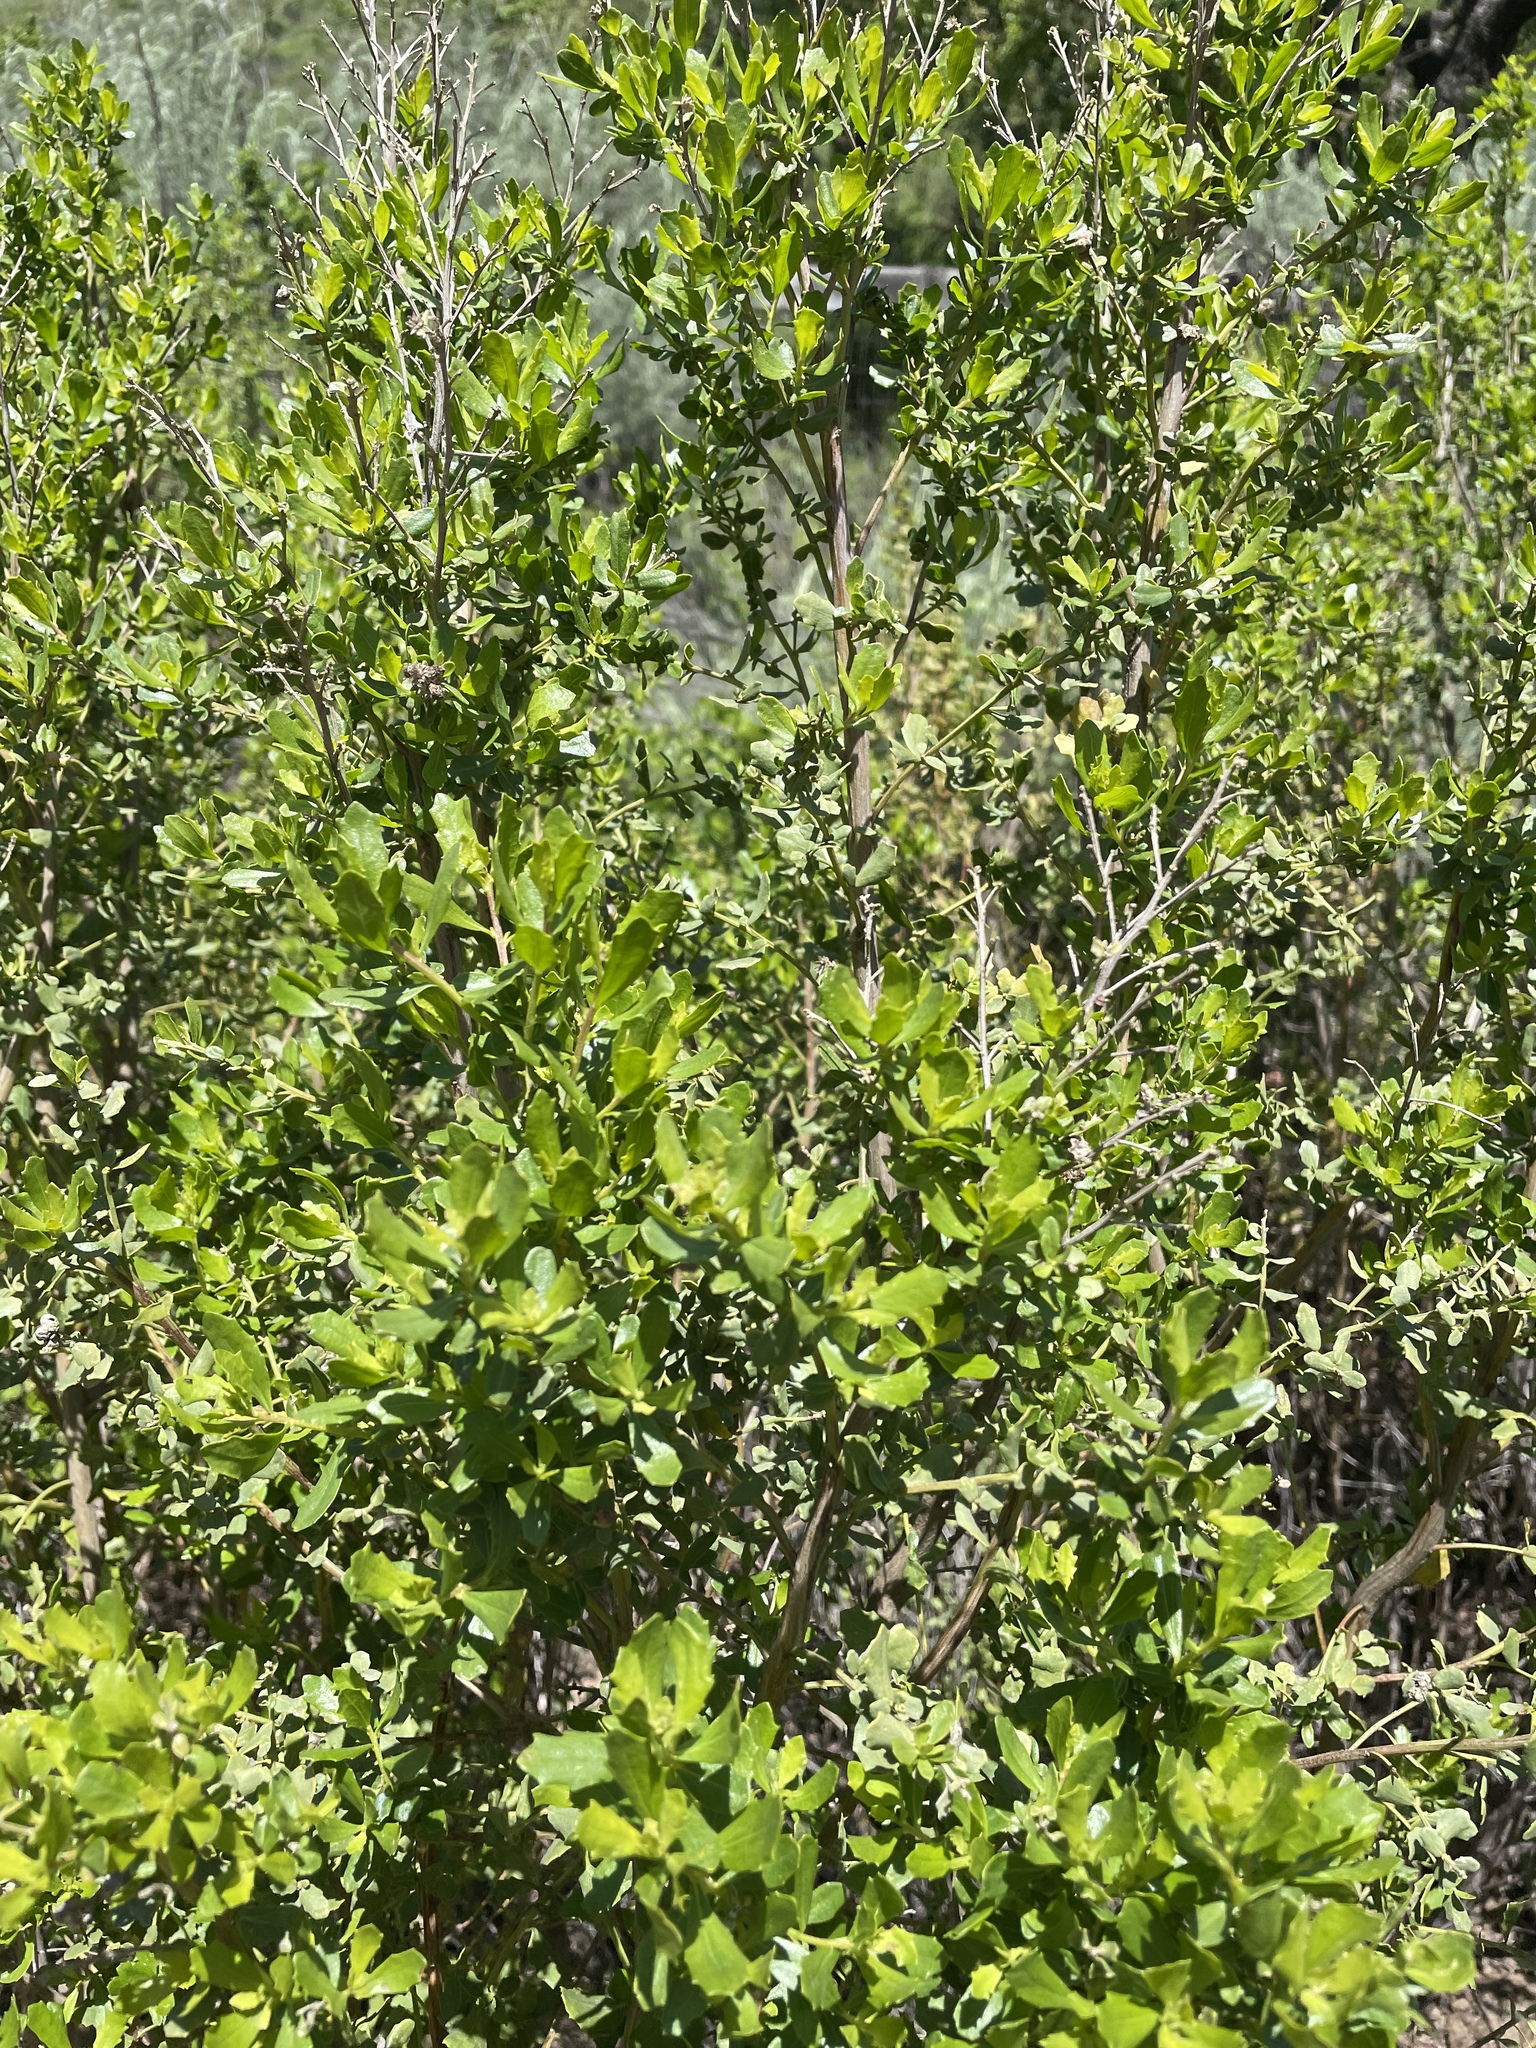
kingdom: Plantae
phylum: Tracheophyta
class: Magnoliopsida
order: Asterales
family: Asteraceae
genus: Baccharis
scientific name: Baccharis pilularis
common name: Coyotebrush
